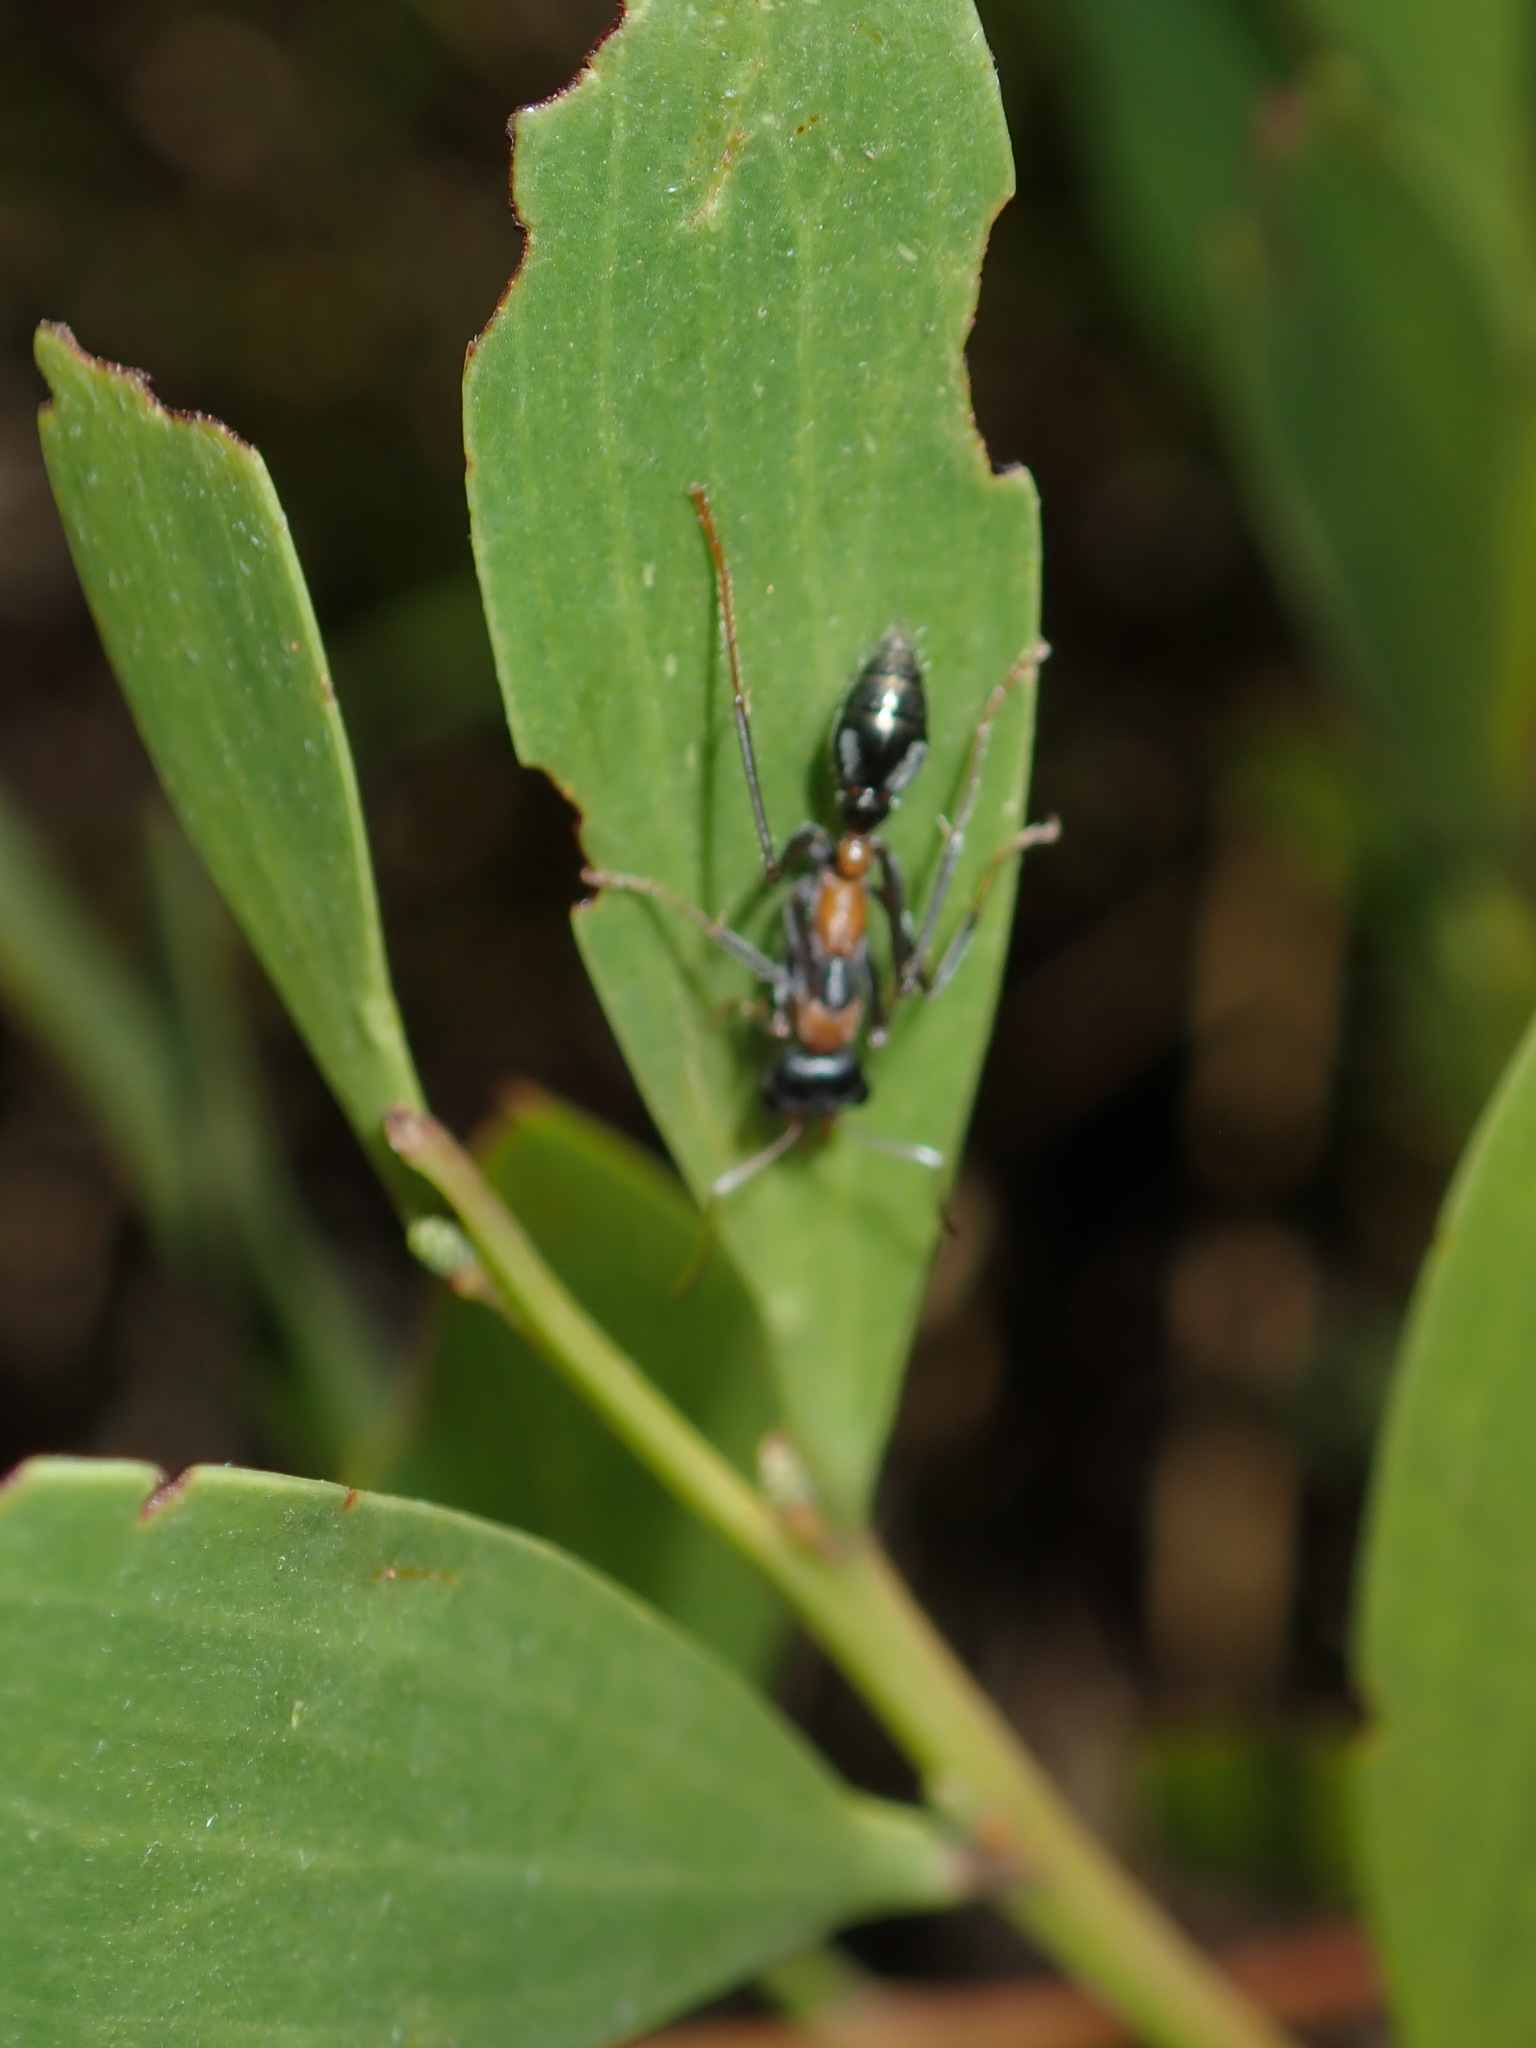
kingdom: Animalia
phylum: Arthropoda
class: Insecta
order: Hymenoptera
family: Formicidae
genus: Myrmecia
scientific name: Myrmecia nigrocincta
